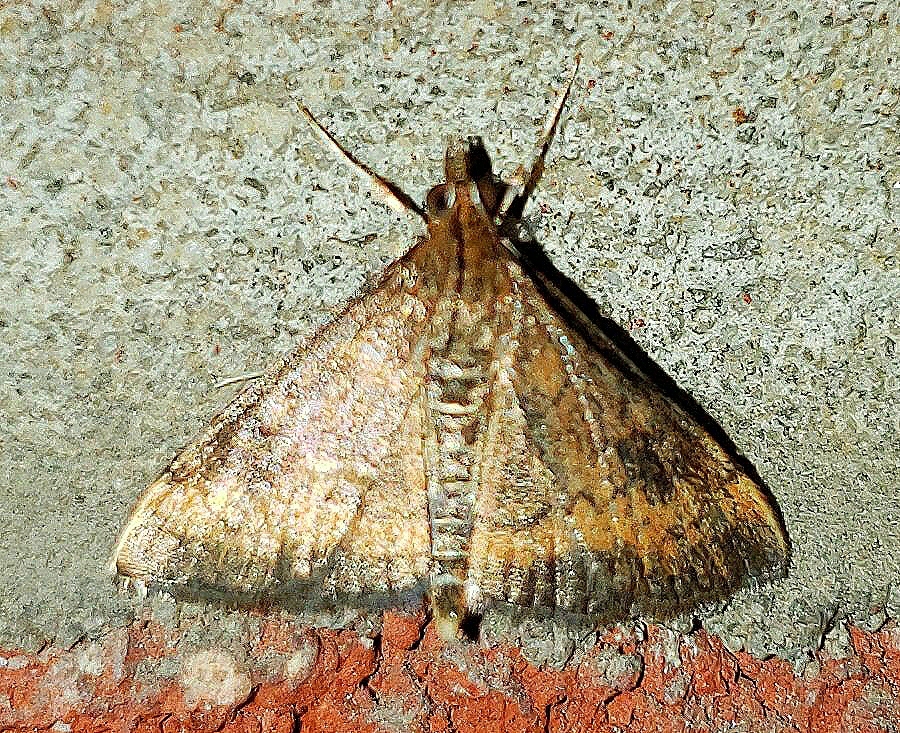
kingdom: Animalia
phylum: Arthropoda
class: Insecta
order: Lepidoptera
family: Crambidae
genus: Pyrausta
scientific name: Pyrausta rubricalis
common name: Variable reddish pyrausta
